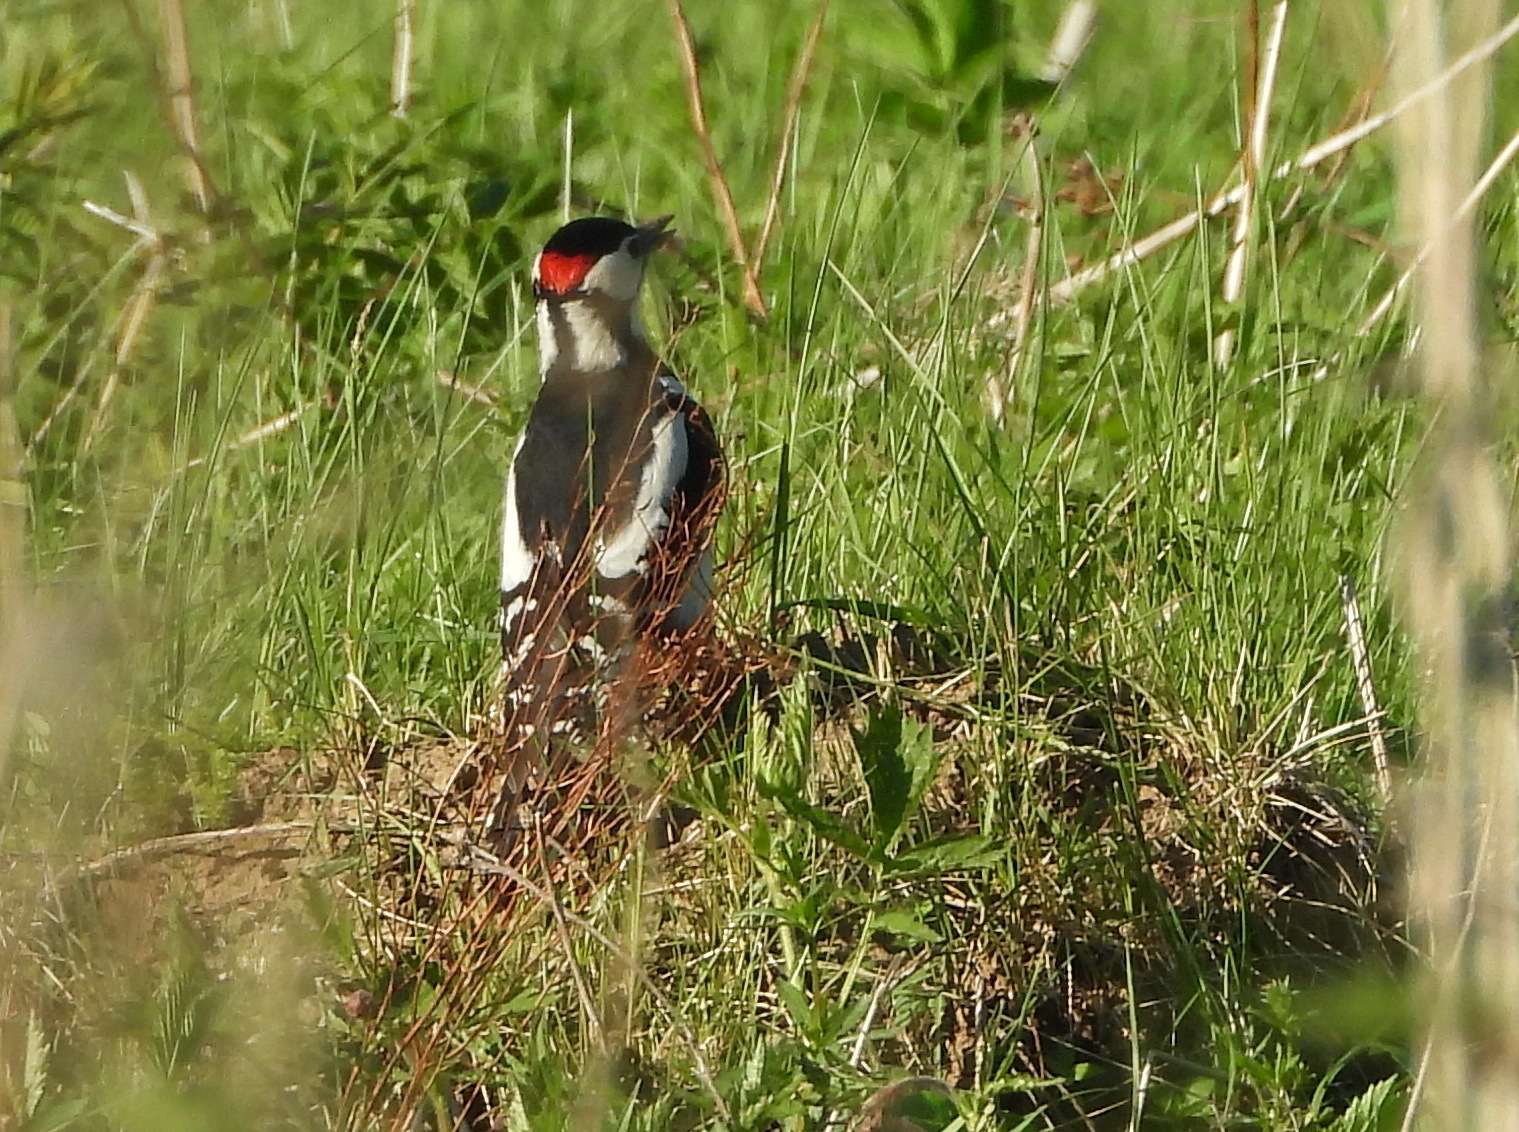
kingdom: Animalia
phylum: Chordata
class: Aves
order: Piciformes
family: Picidae
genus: Dendrocopos
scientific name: Dendrocopos major
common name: Great spotted woodpecker
